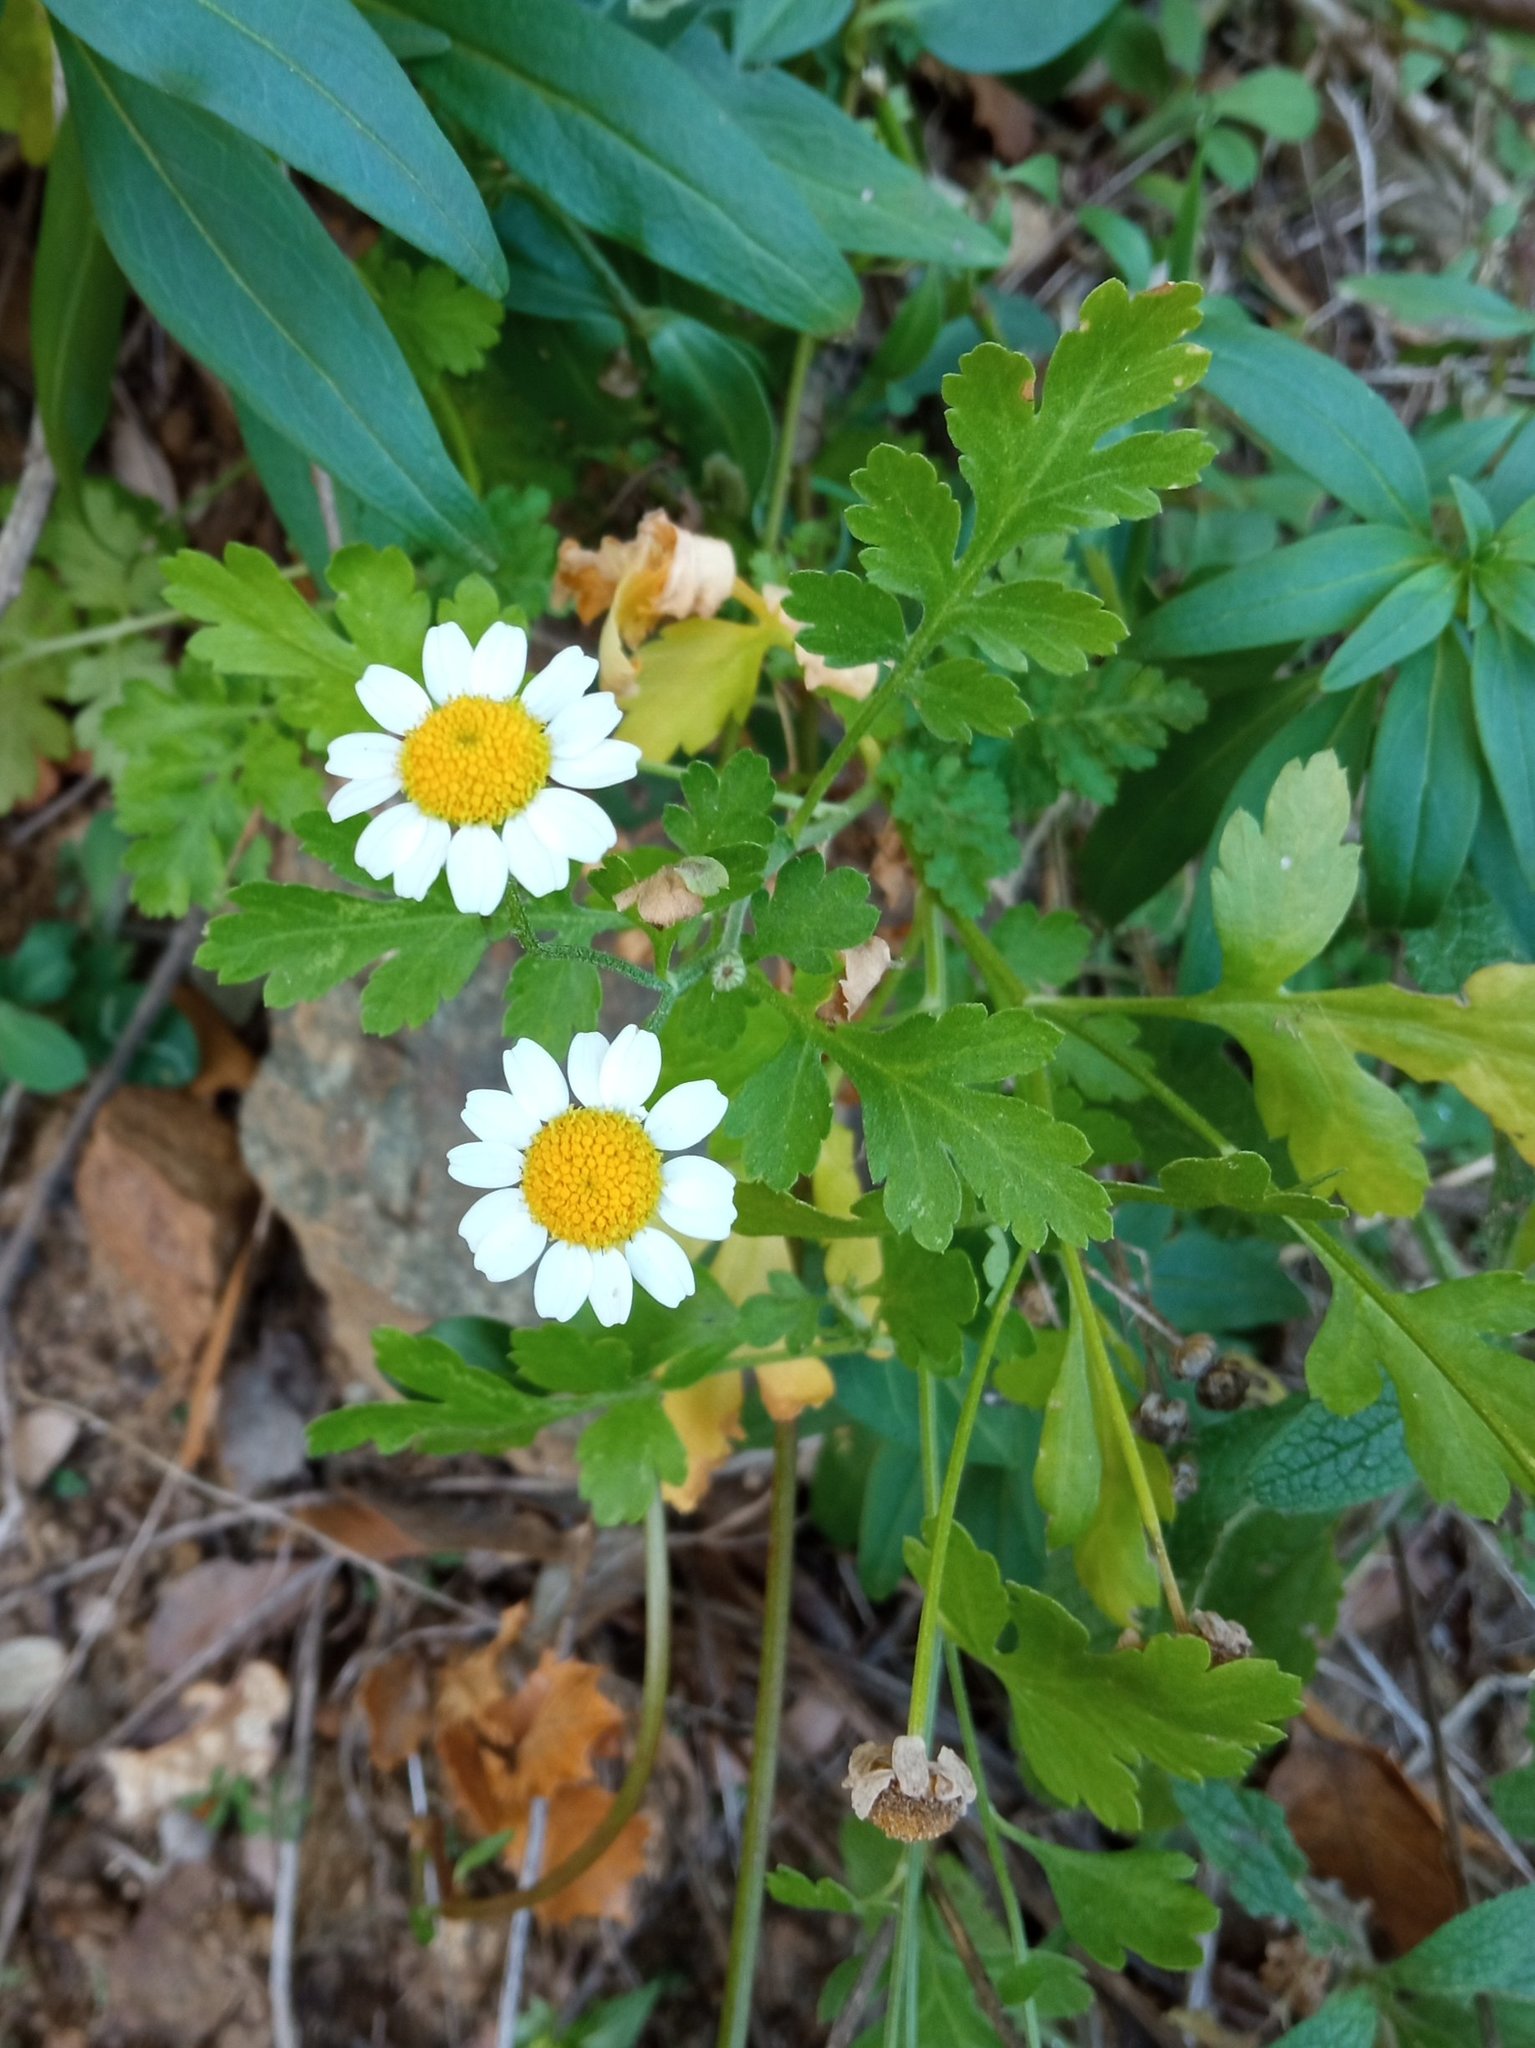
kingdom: Plantae
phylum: Tracheophyta
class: Magnoliopsida
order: Asterales
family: Asteraceae
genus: Tanacetum
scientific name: Tanacetum parthenium
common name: Feverfew
